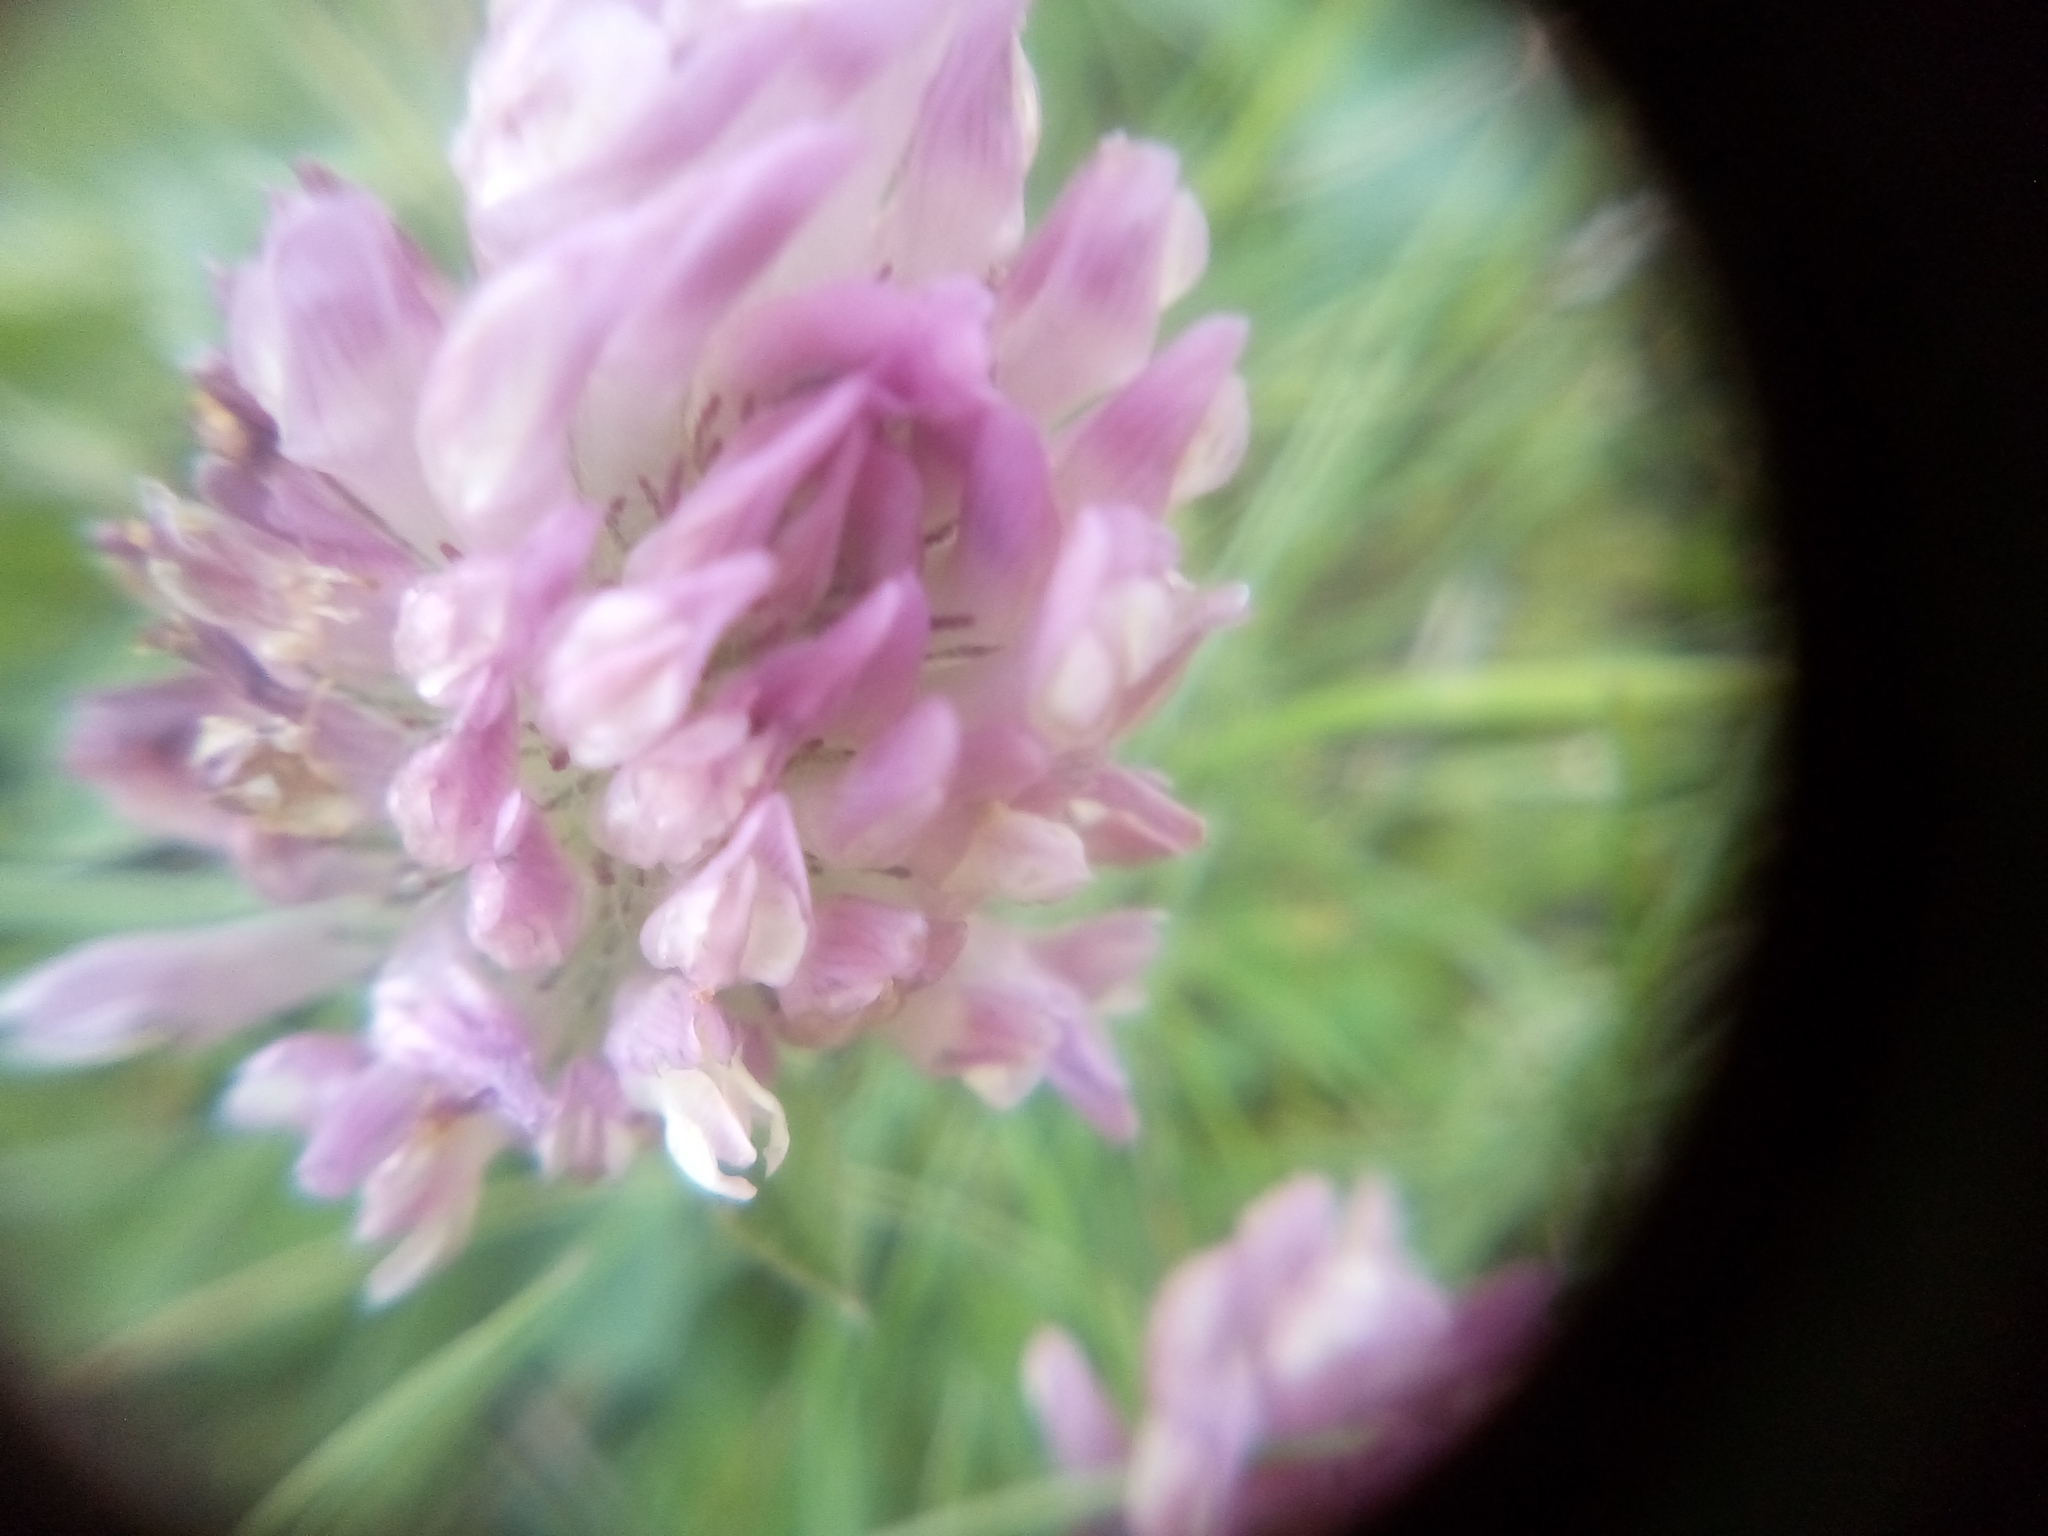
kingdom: Plantae
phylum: Tracheophyta
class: Magnoliopsida
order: Fabales
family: Fabaceae
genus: Trifolium
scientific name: Trifolium pratense
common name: Red clover
